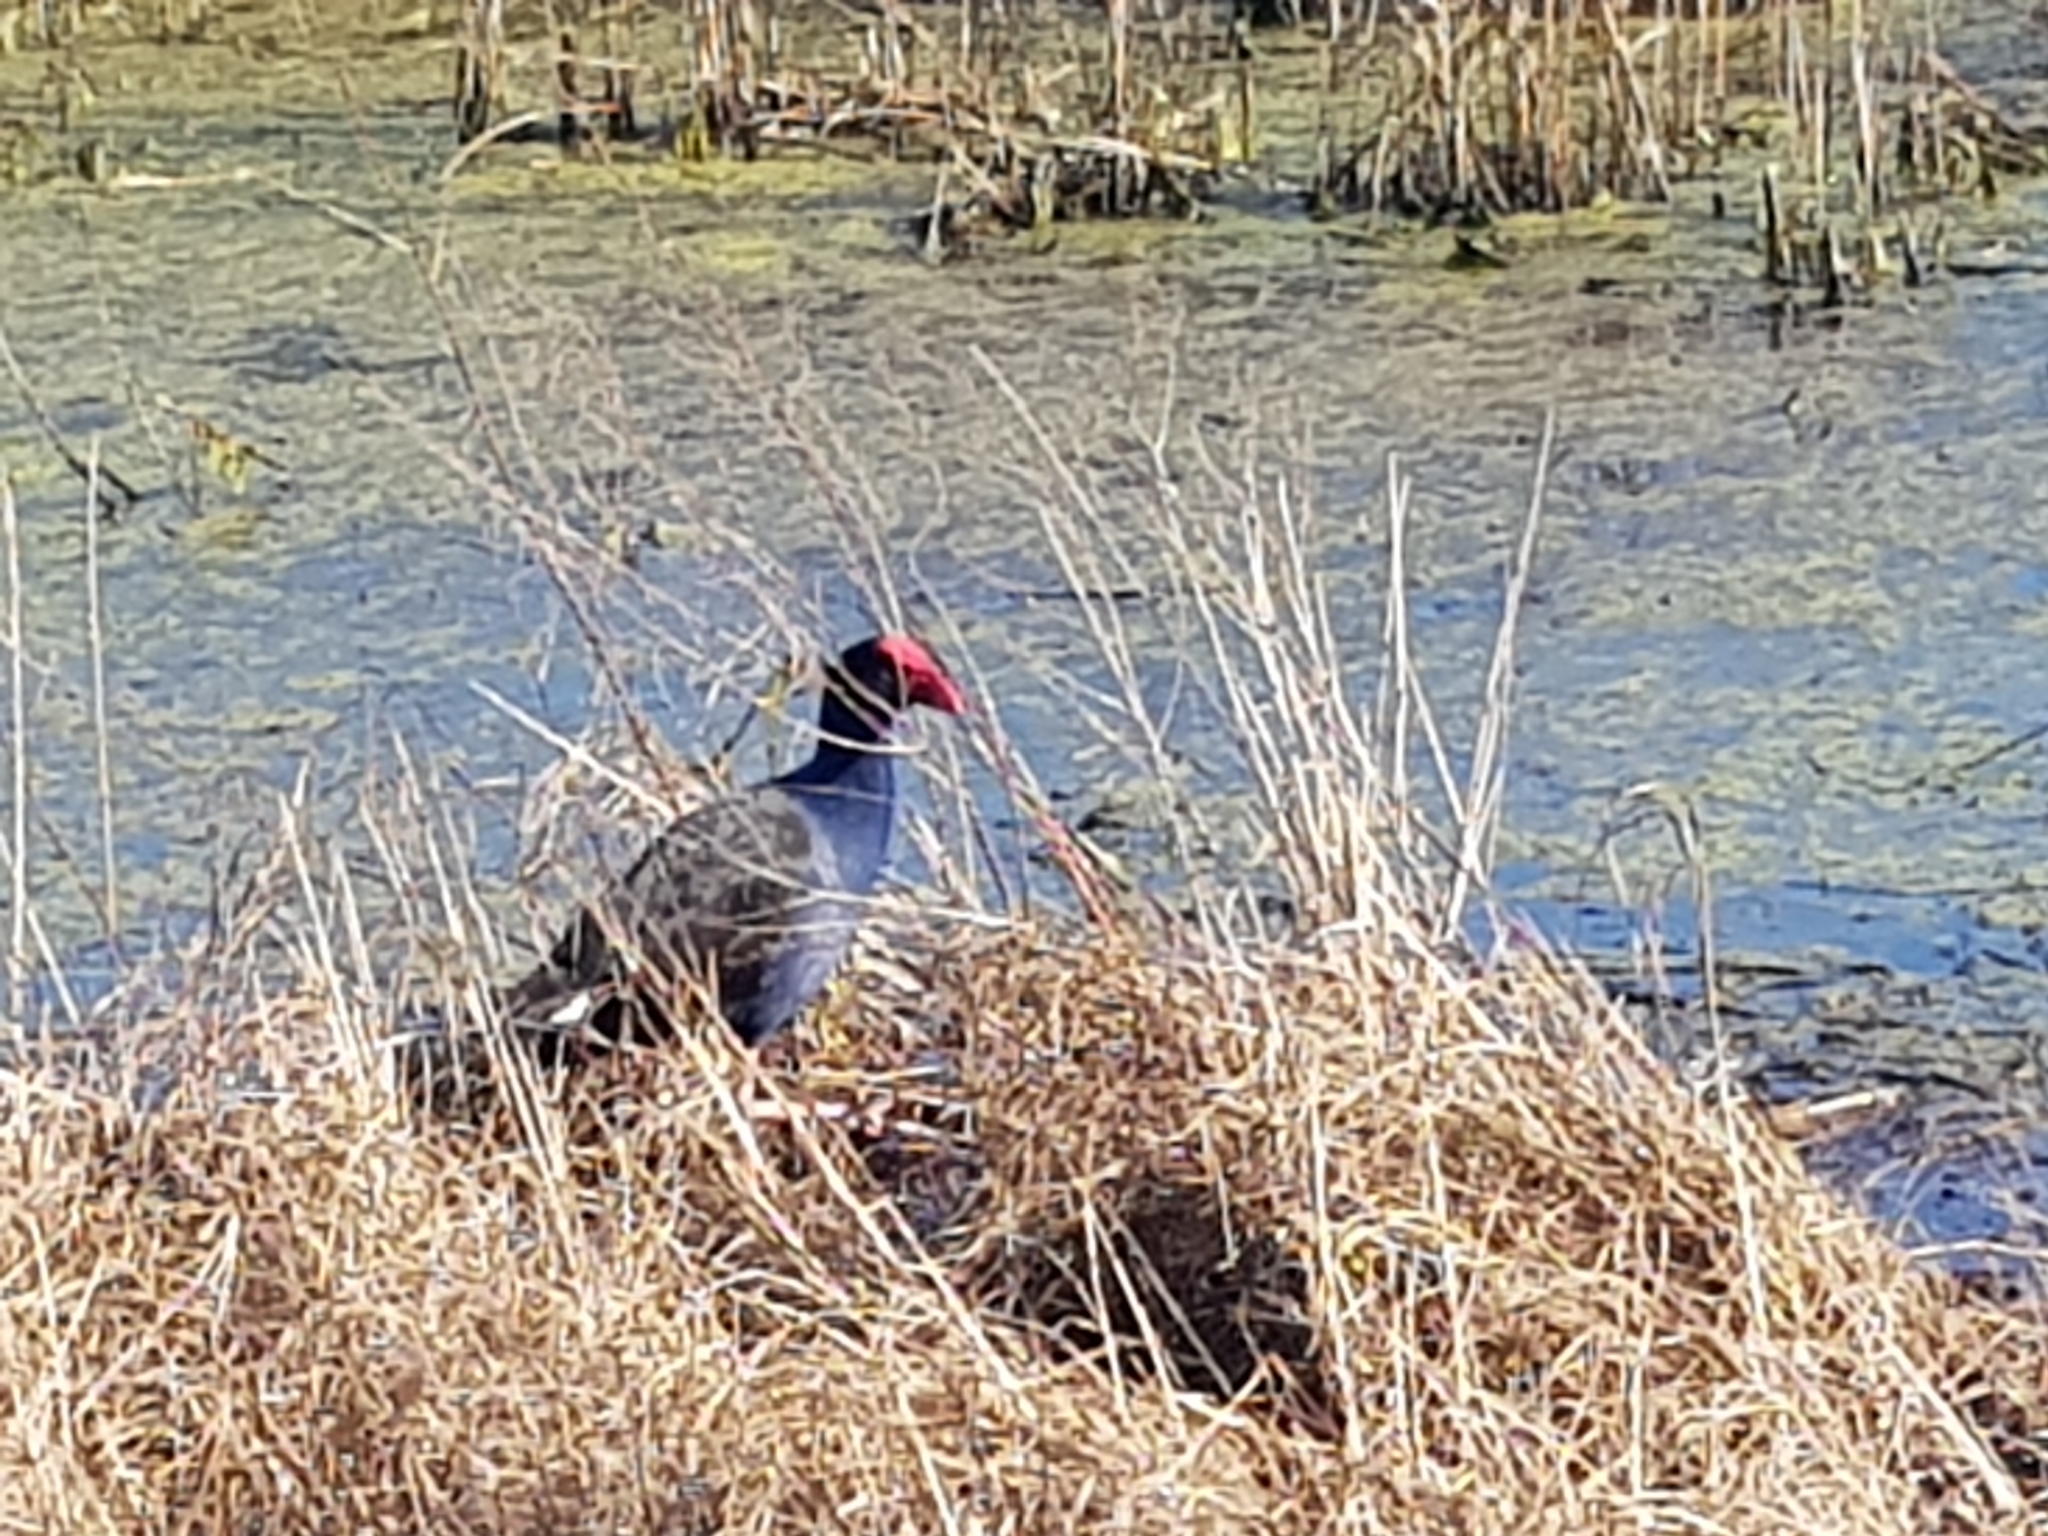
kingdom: Animalia
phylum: Chordata
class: Aves
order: Gruiformes
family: Rallidae
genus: Porphyrio
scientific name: Porphyrio melanotus
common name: Australasian swamphen
